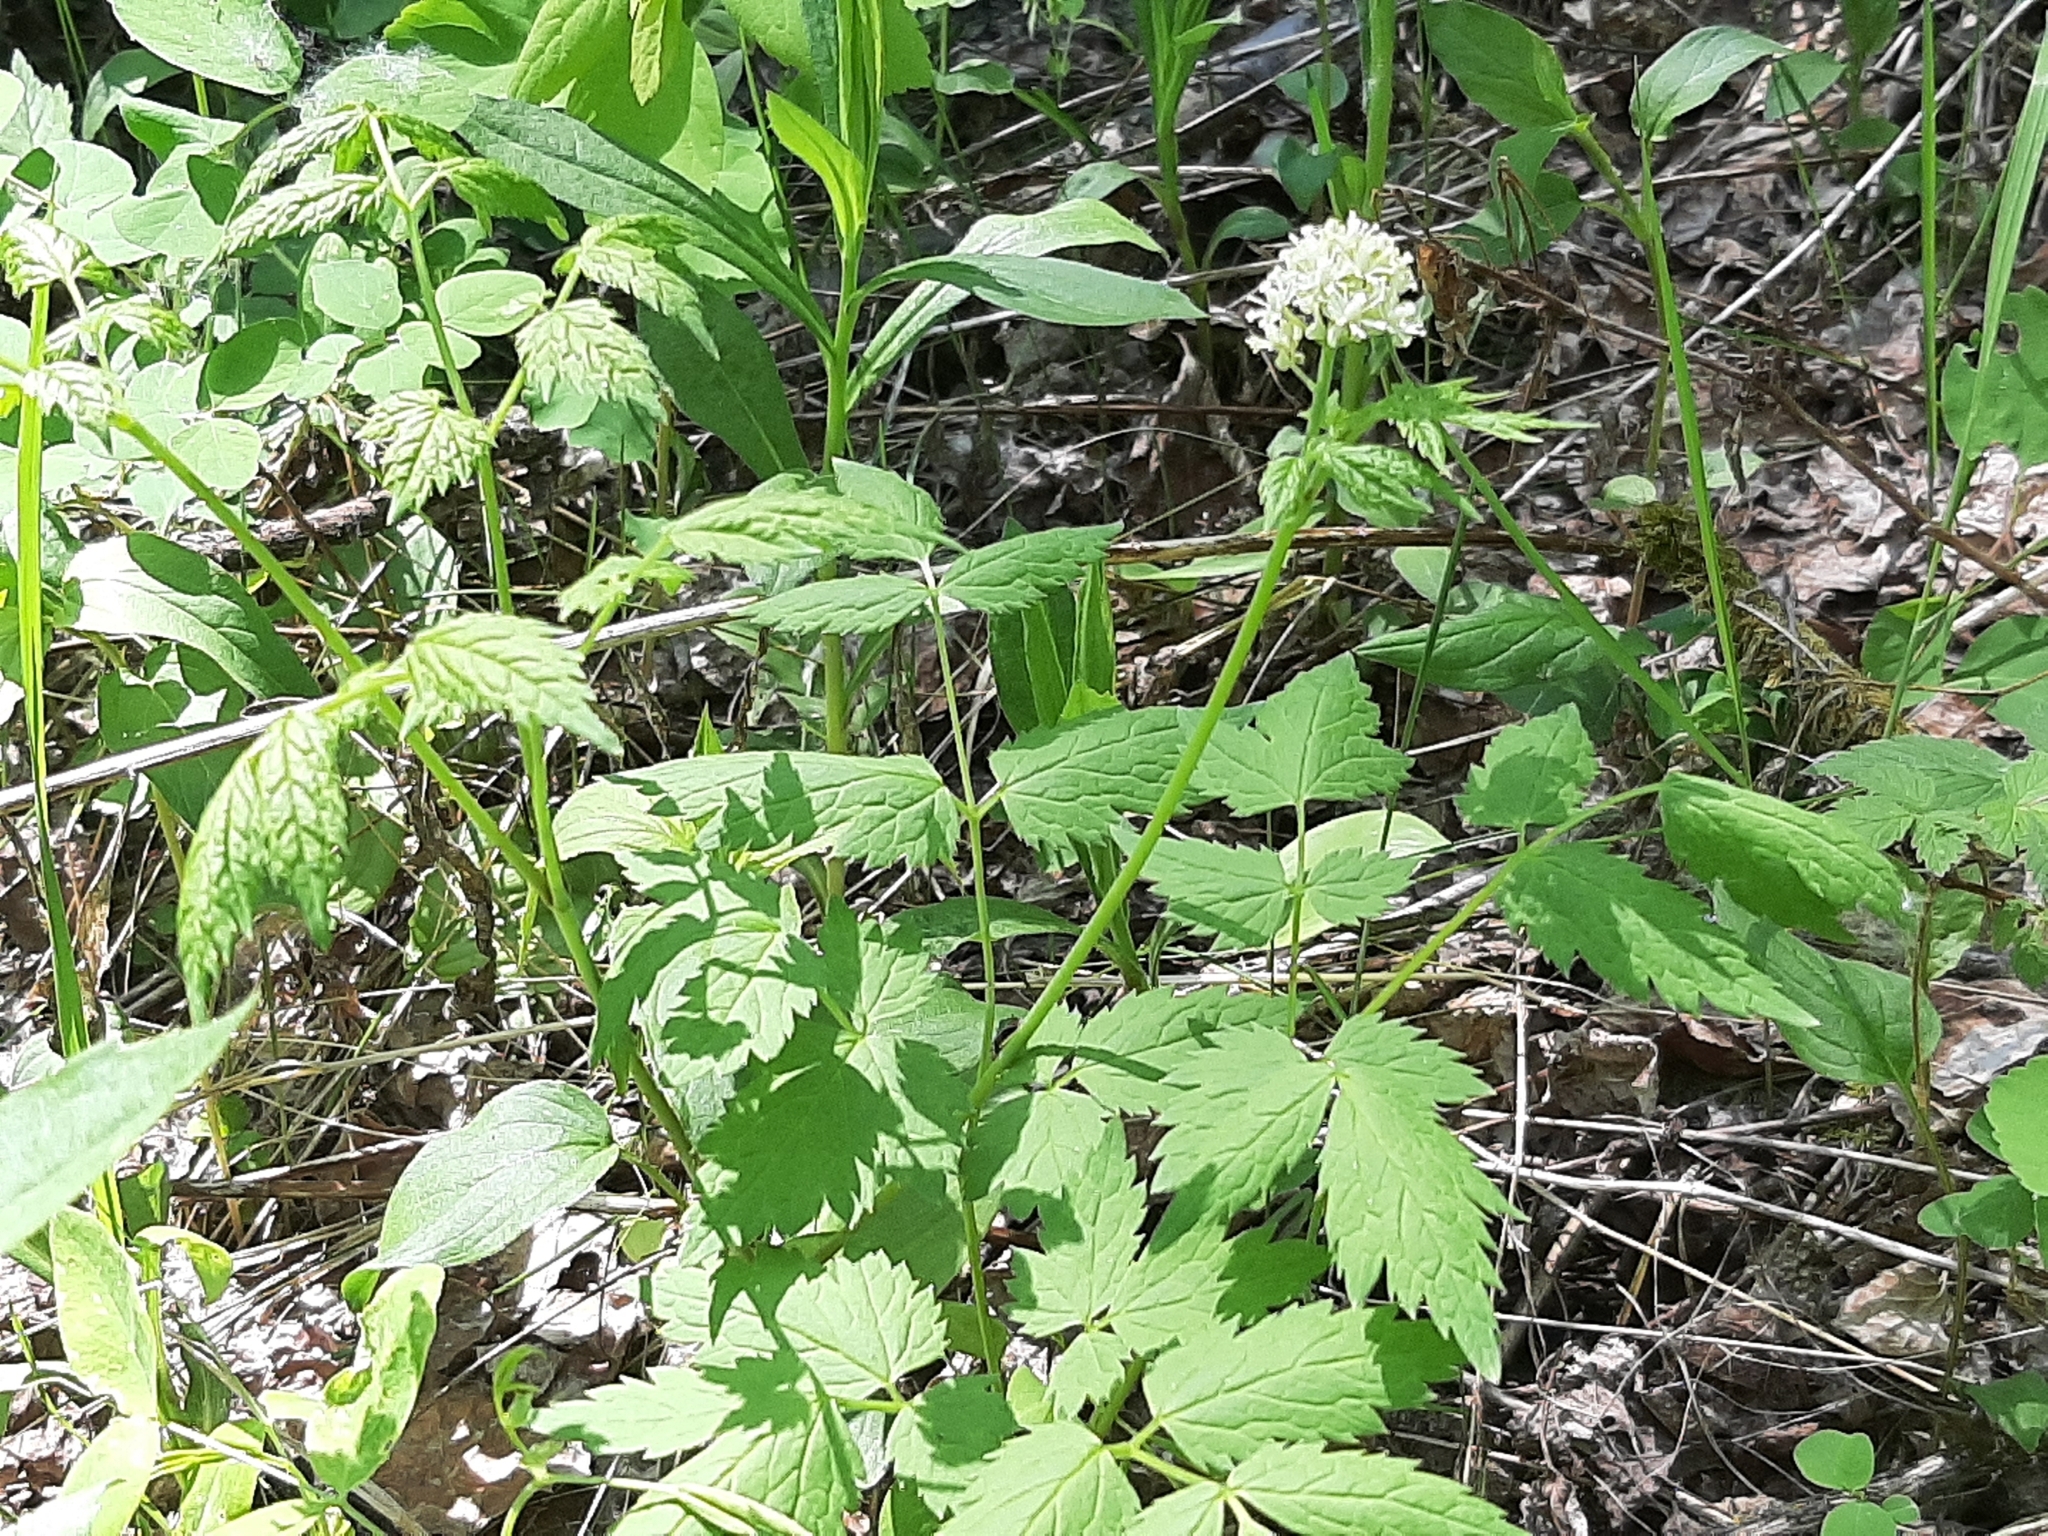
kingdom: Plantae
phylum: Tracheophyta
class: Magnoliopsida
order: Ranunculales
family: Ranunculaceae
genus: Actaea
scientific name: Actaea rubra
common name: Red baneberry
